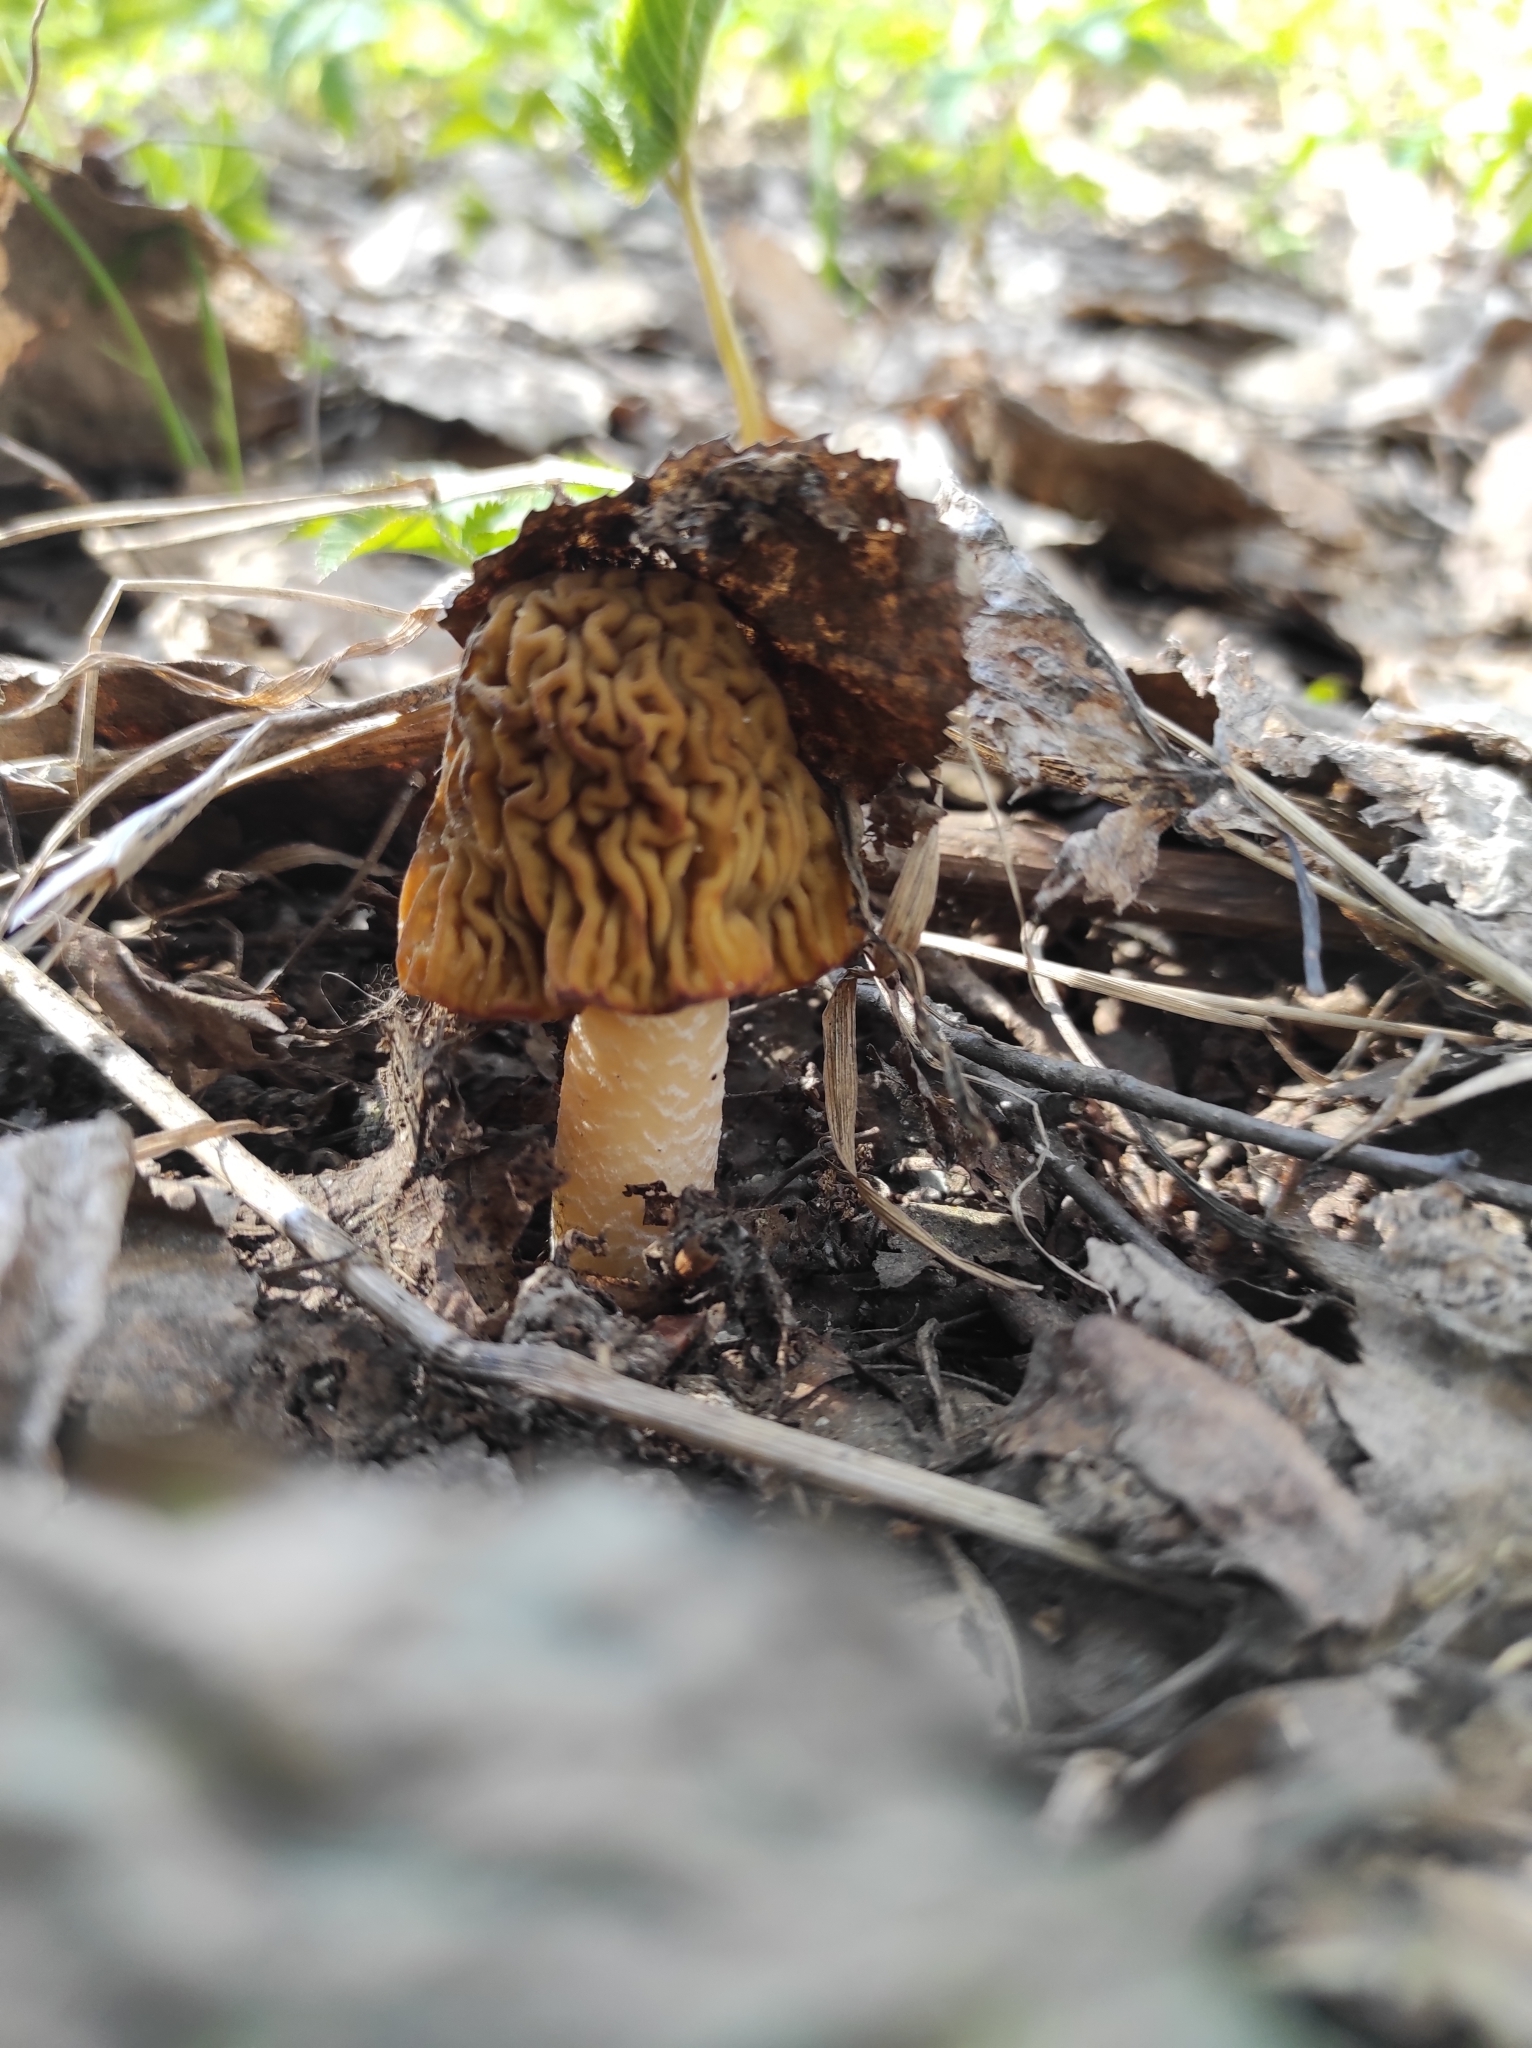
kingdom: Fungi
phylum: Ascomycota
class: Pezizomycetes
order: Pezizales
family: Morchellaceae
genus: Verpa
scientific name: Verpa bohemica
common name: Wrinkled thimble morel
